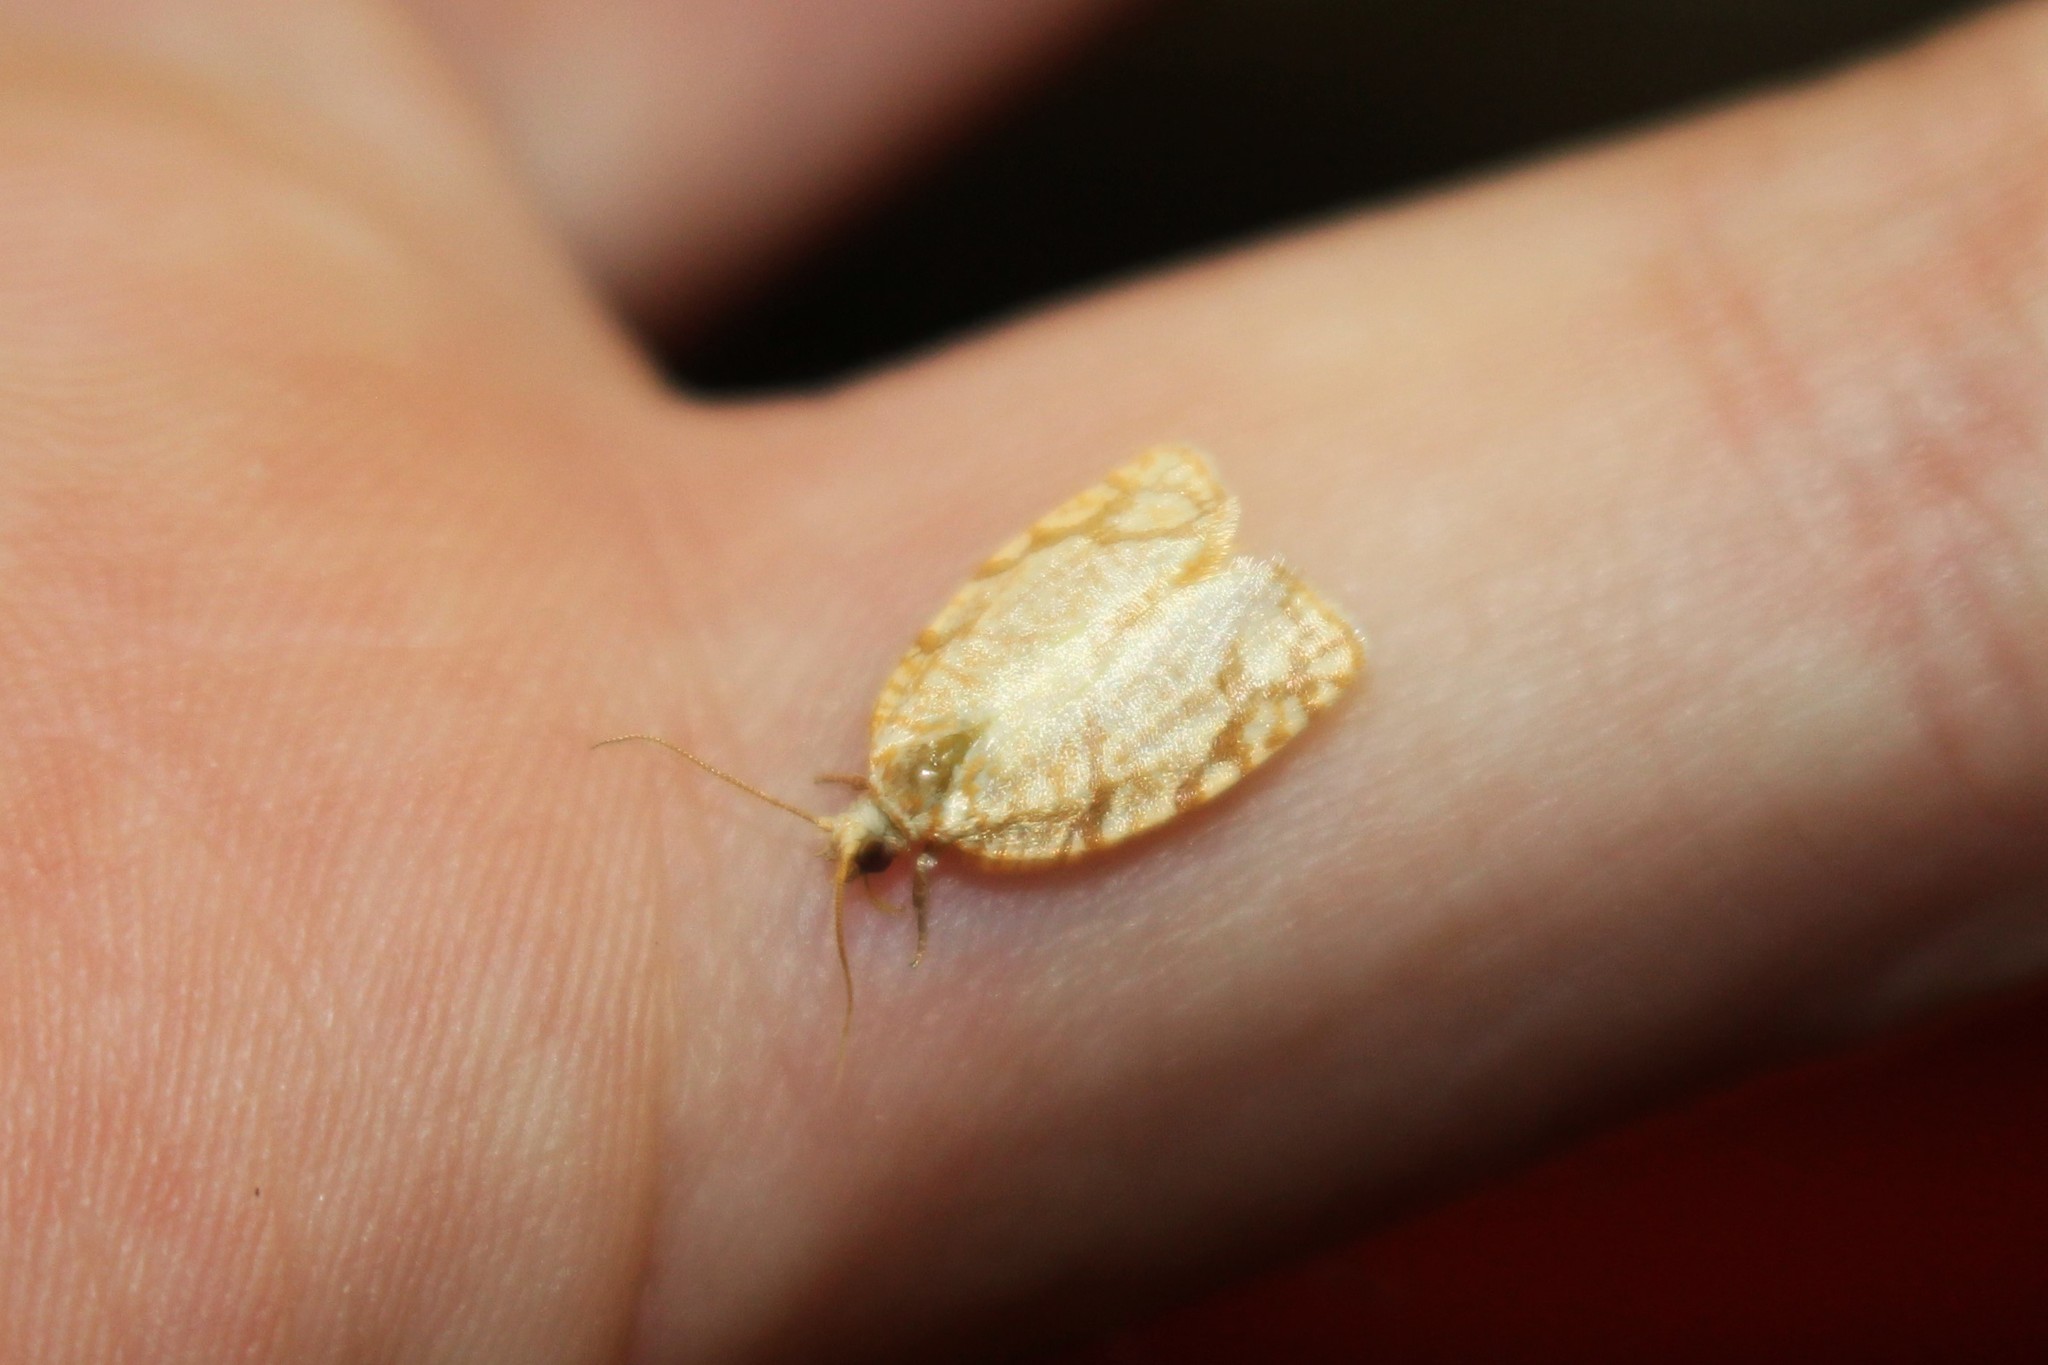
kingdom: Animalia
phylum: Arthropoda
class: Insecta
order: Lepidoptera
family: Tortricidae
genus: Argyrotaenia
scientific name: Argyrotaenia quercifoliana
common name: Yellow-winged oak leafroller moth
